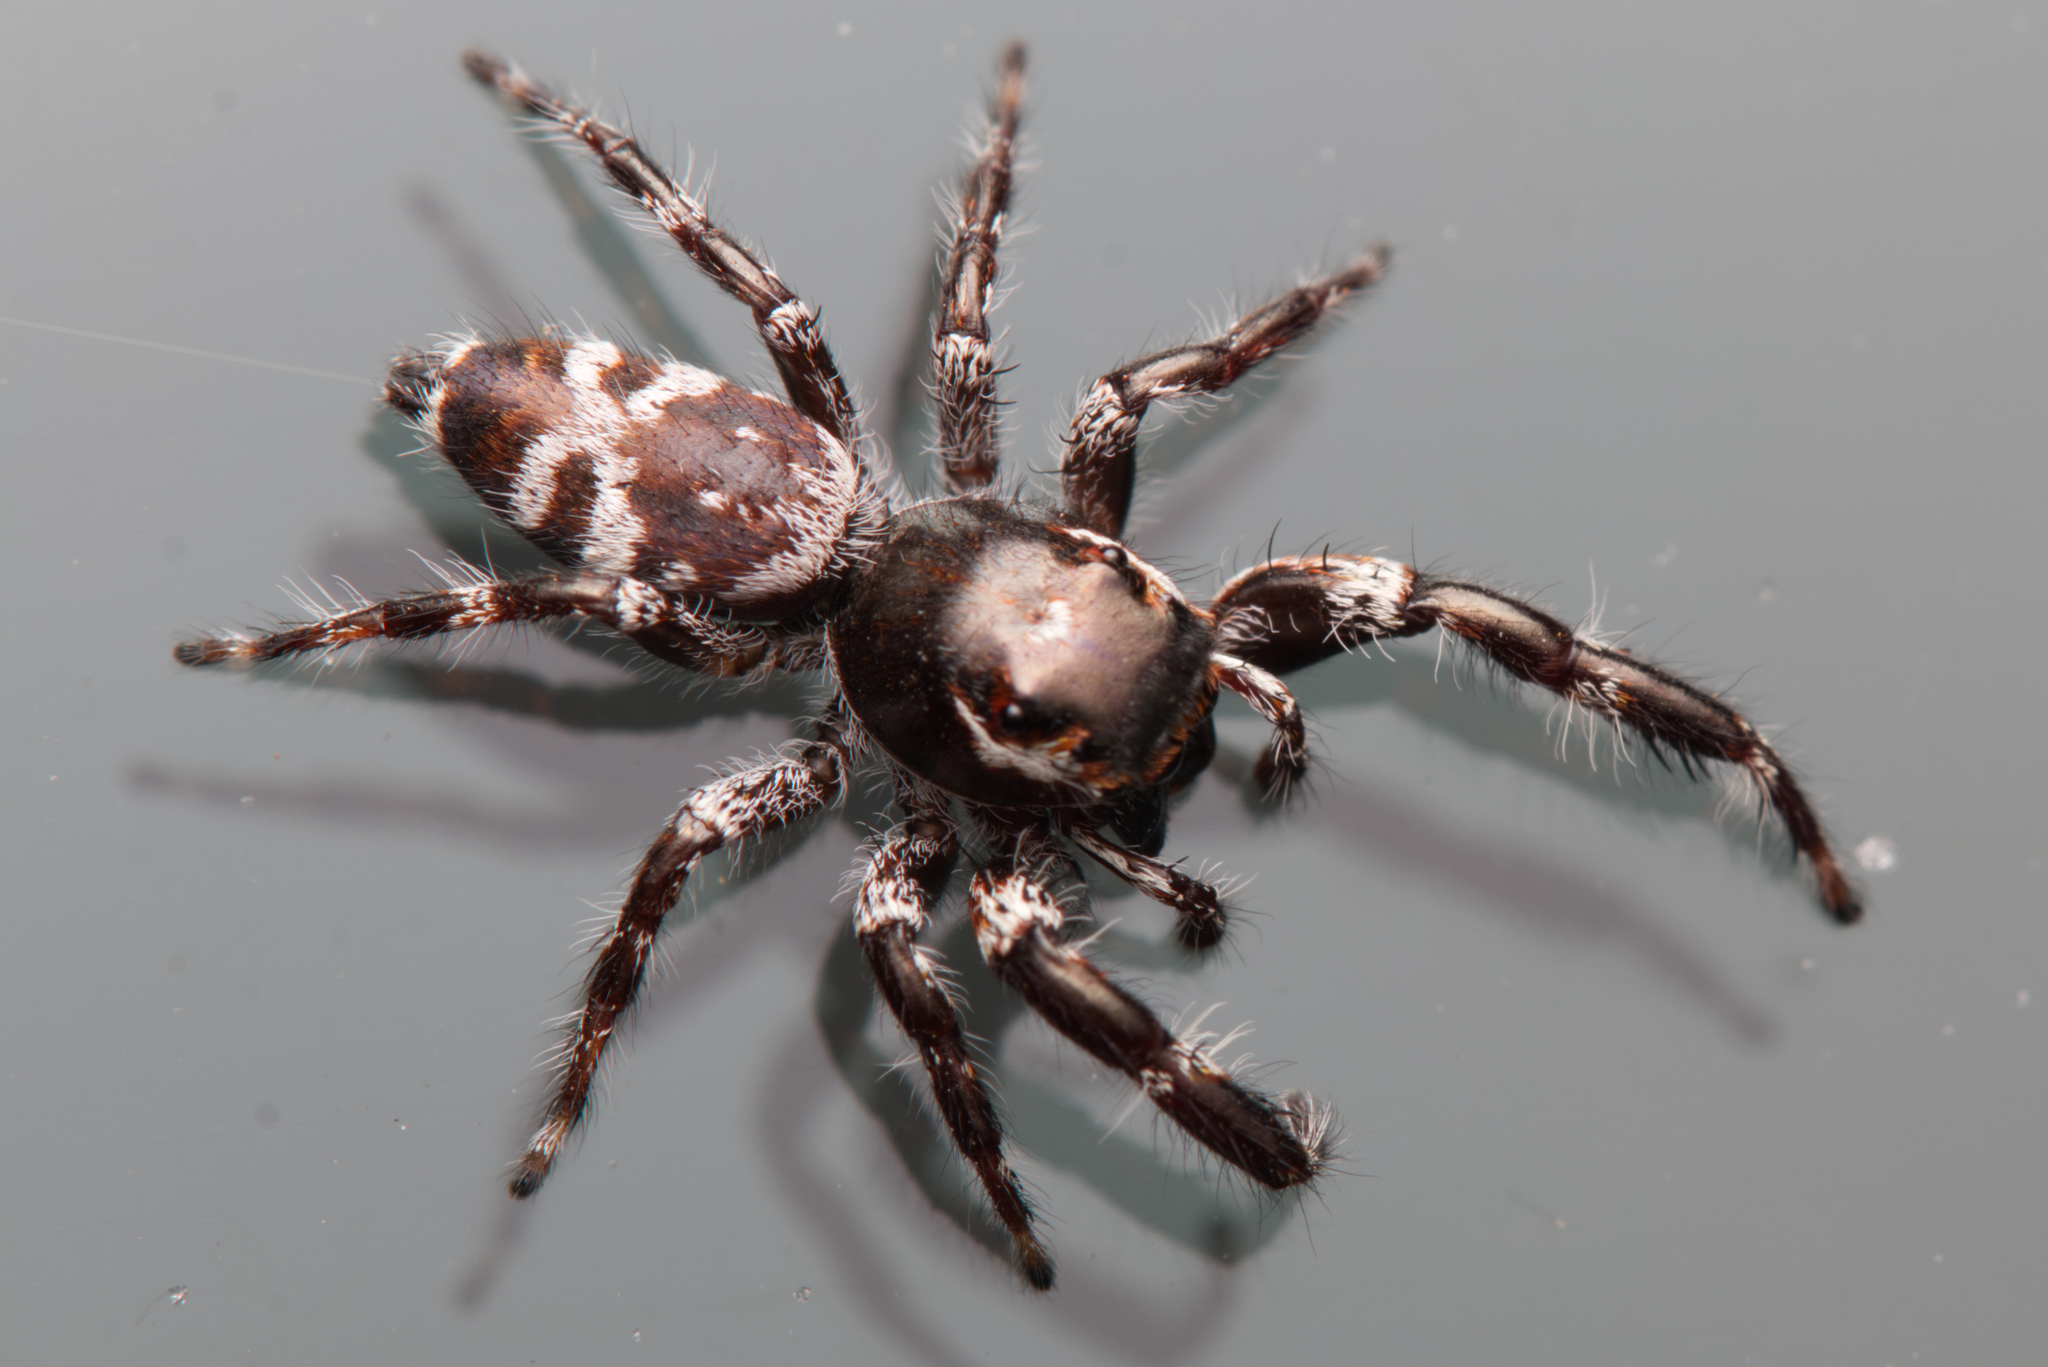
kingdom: Animalia
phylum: Arthropoda
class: Arachnida
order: Araneae
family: Salticidae
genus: Sandalodes
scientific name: Sandalodes superbus
